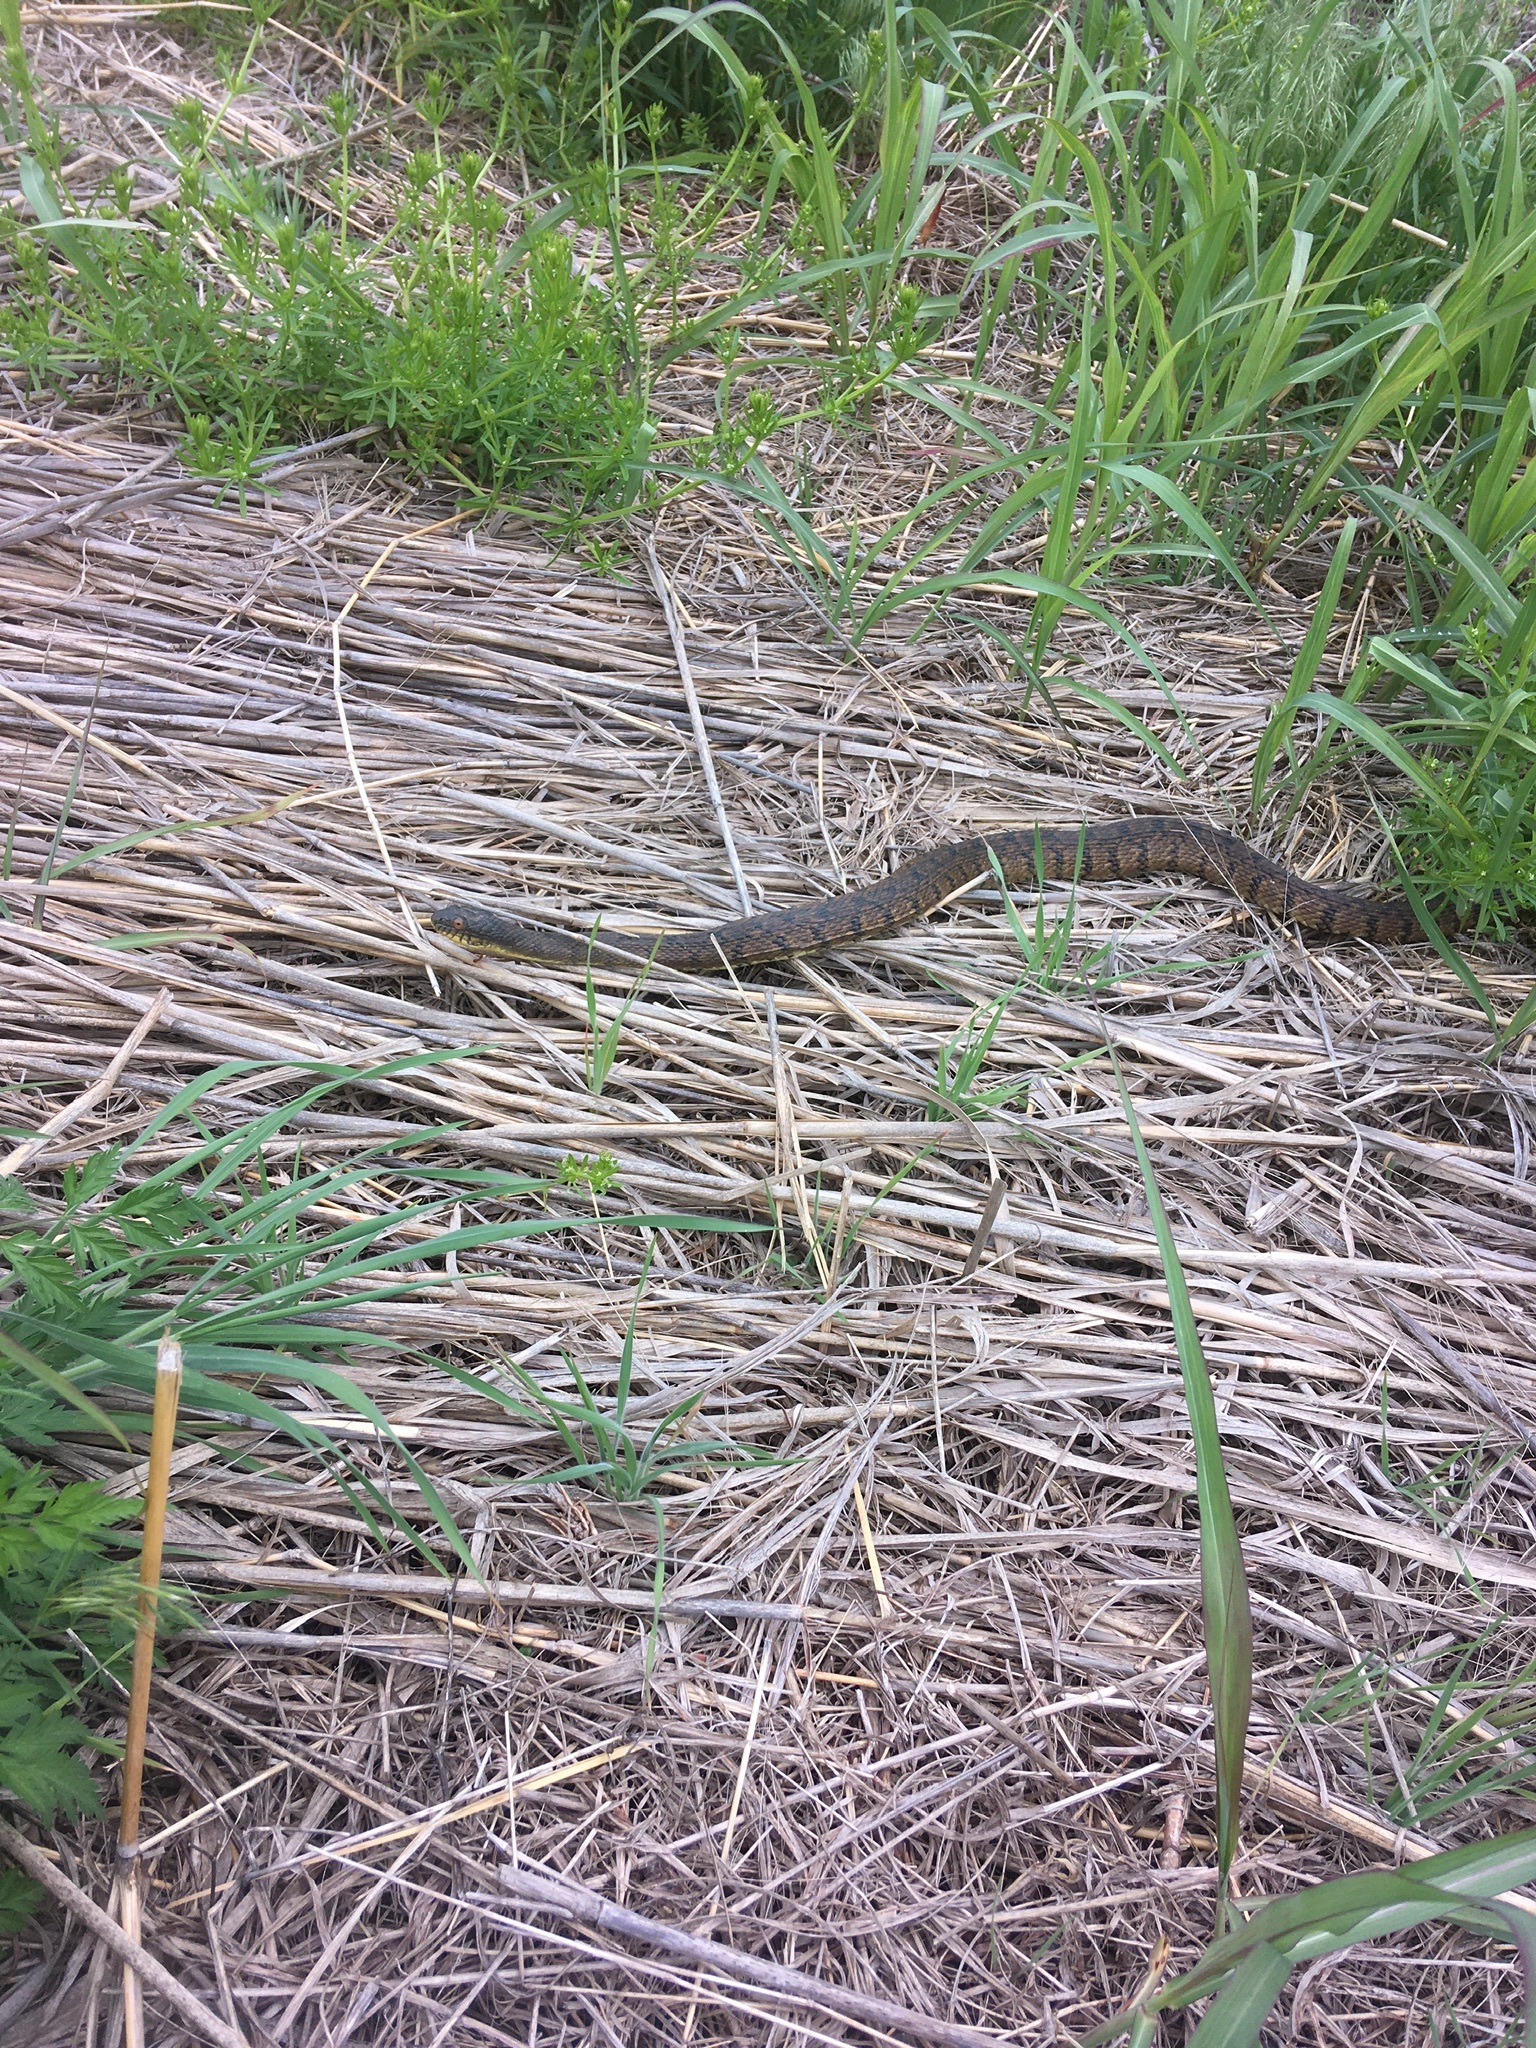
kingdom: Animalia
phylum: Chordata
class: Squamata
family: Colubridae
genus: Nerodia
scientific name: Nerodia rhombifer
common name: Diamondback water snake
